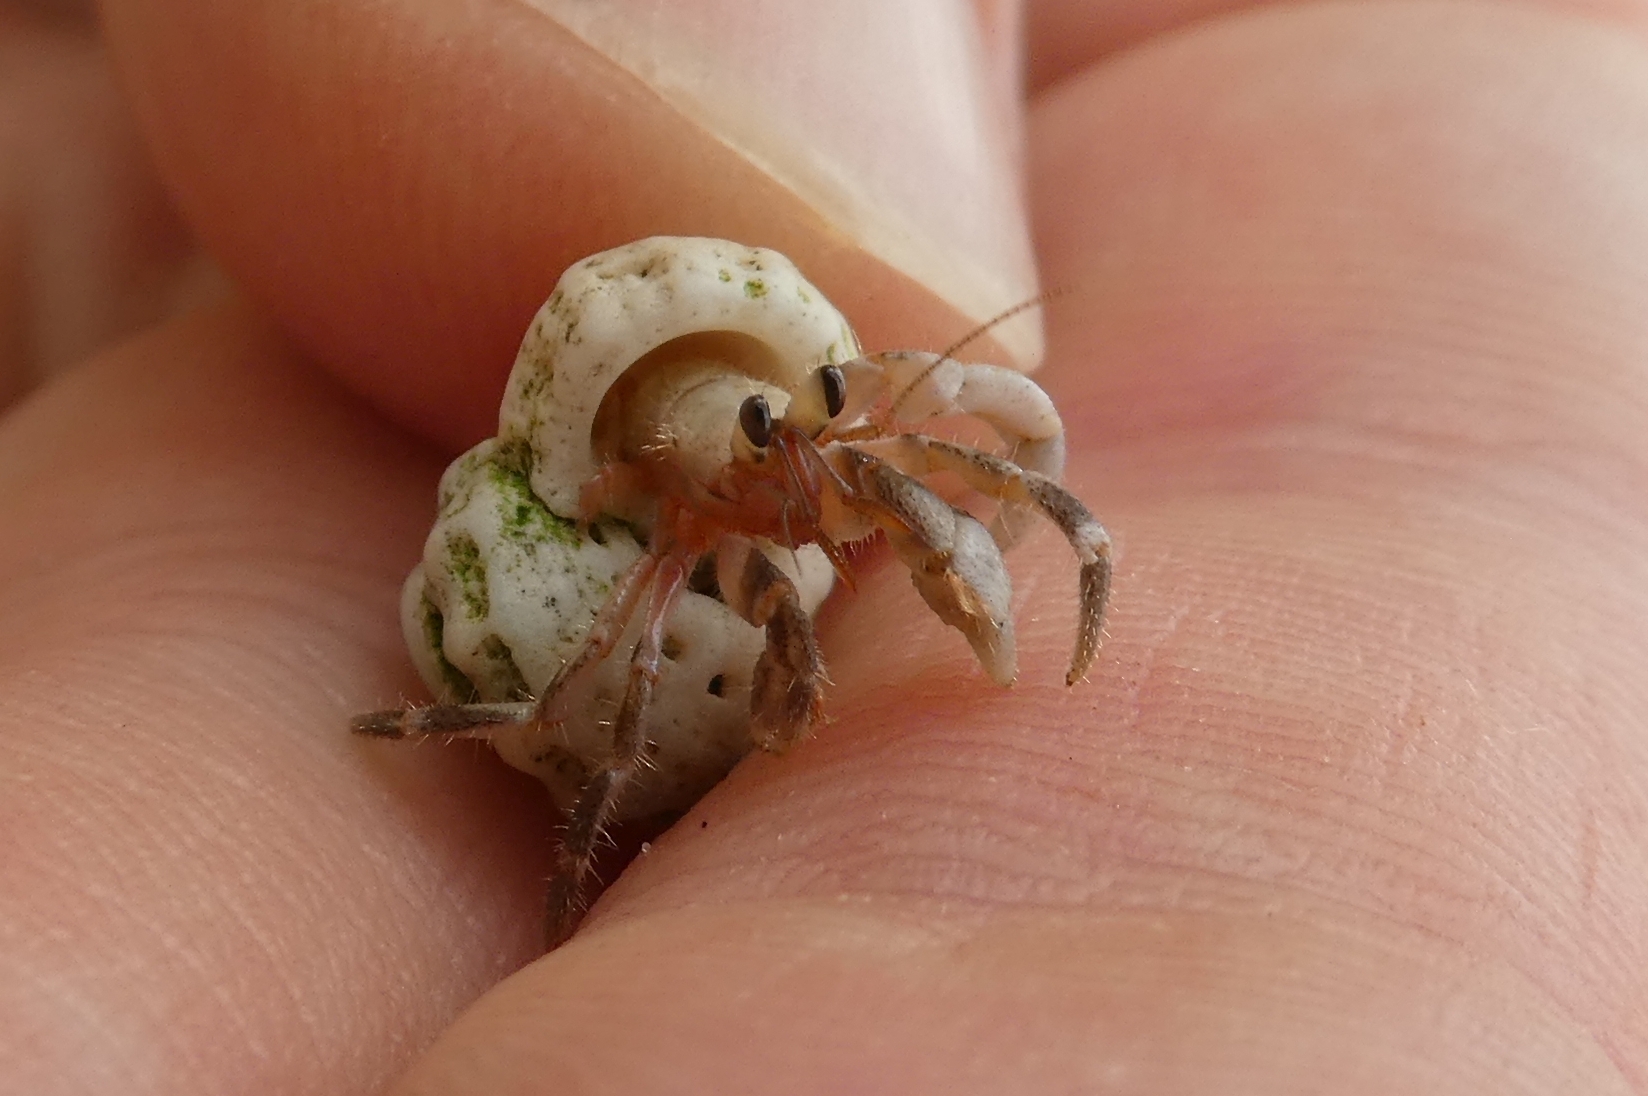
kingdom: Animalia
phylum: Arthropoda
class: Malacostraca
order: Decapoda
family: Coenobitidae
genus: Coenobita
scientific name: Coenobita rugosus
